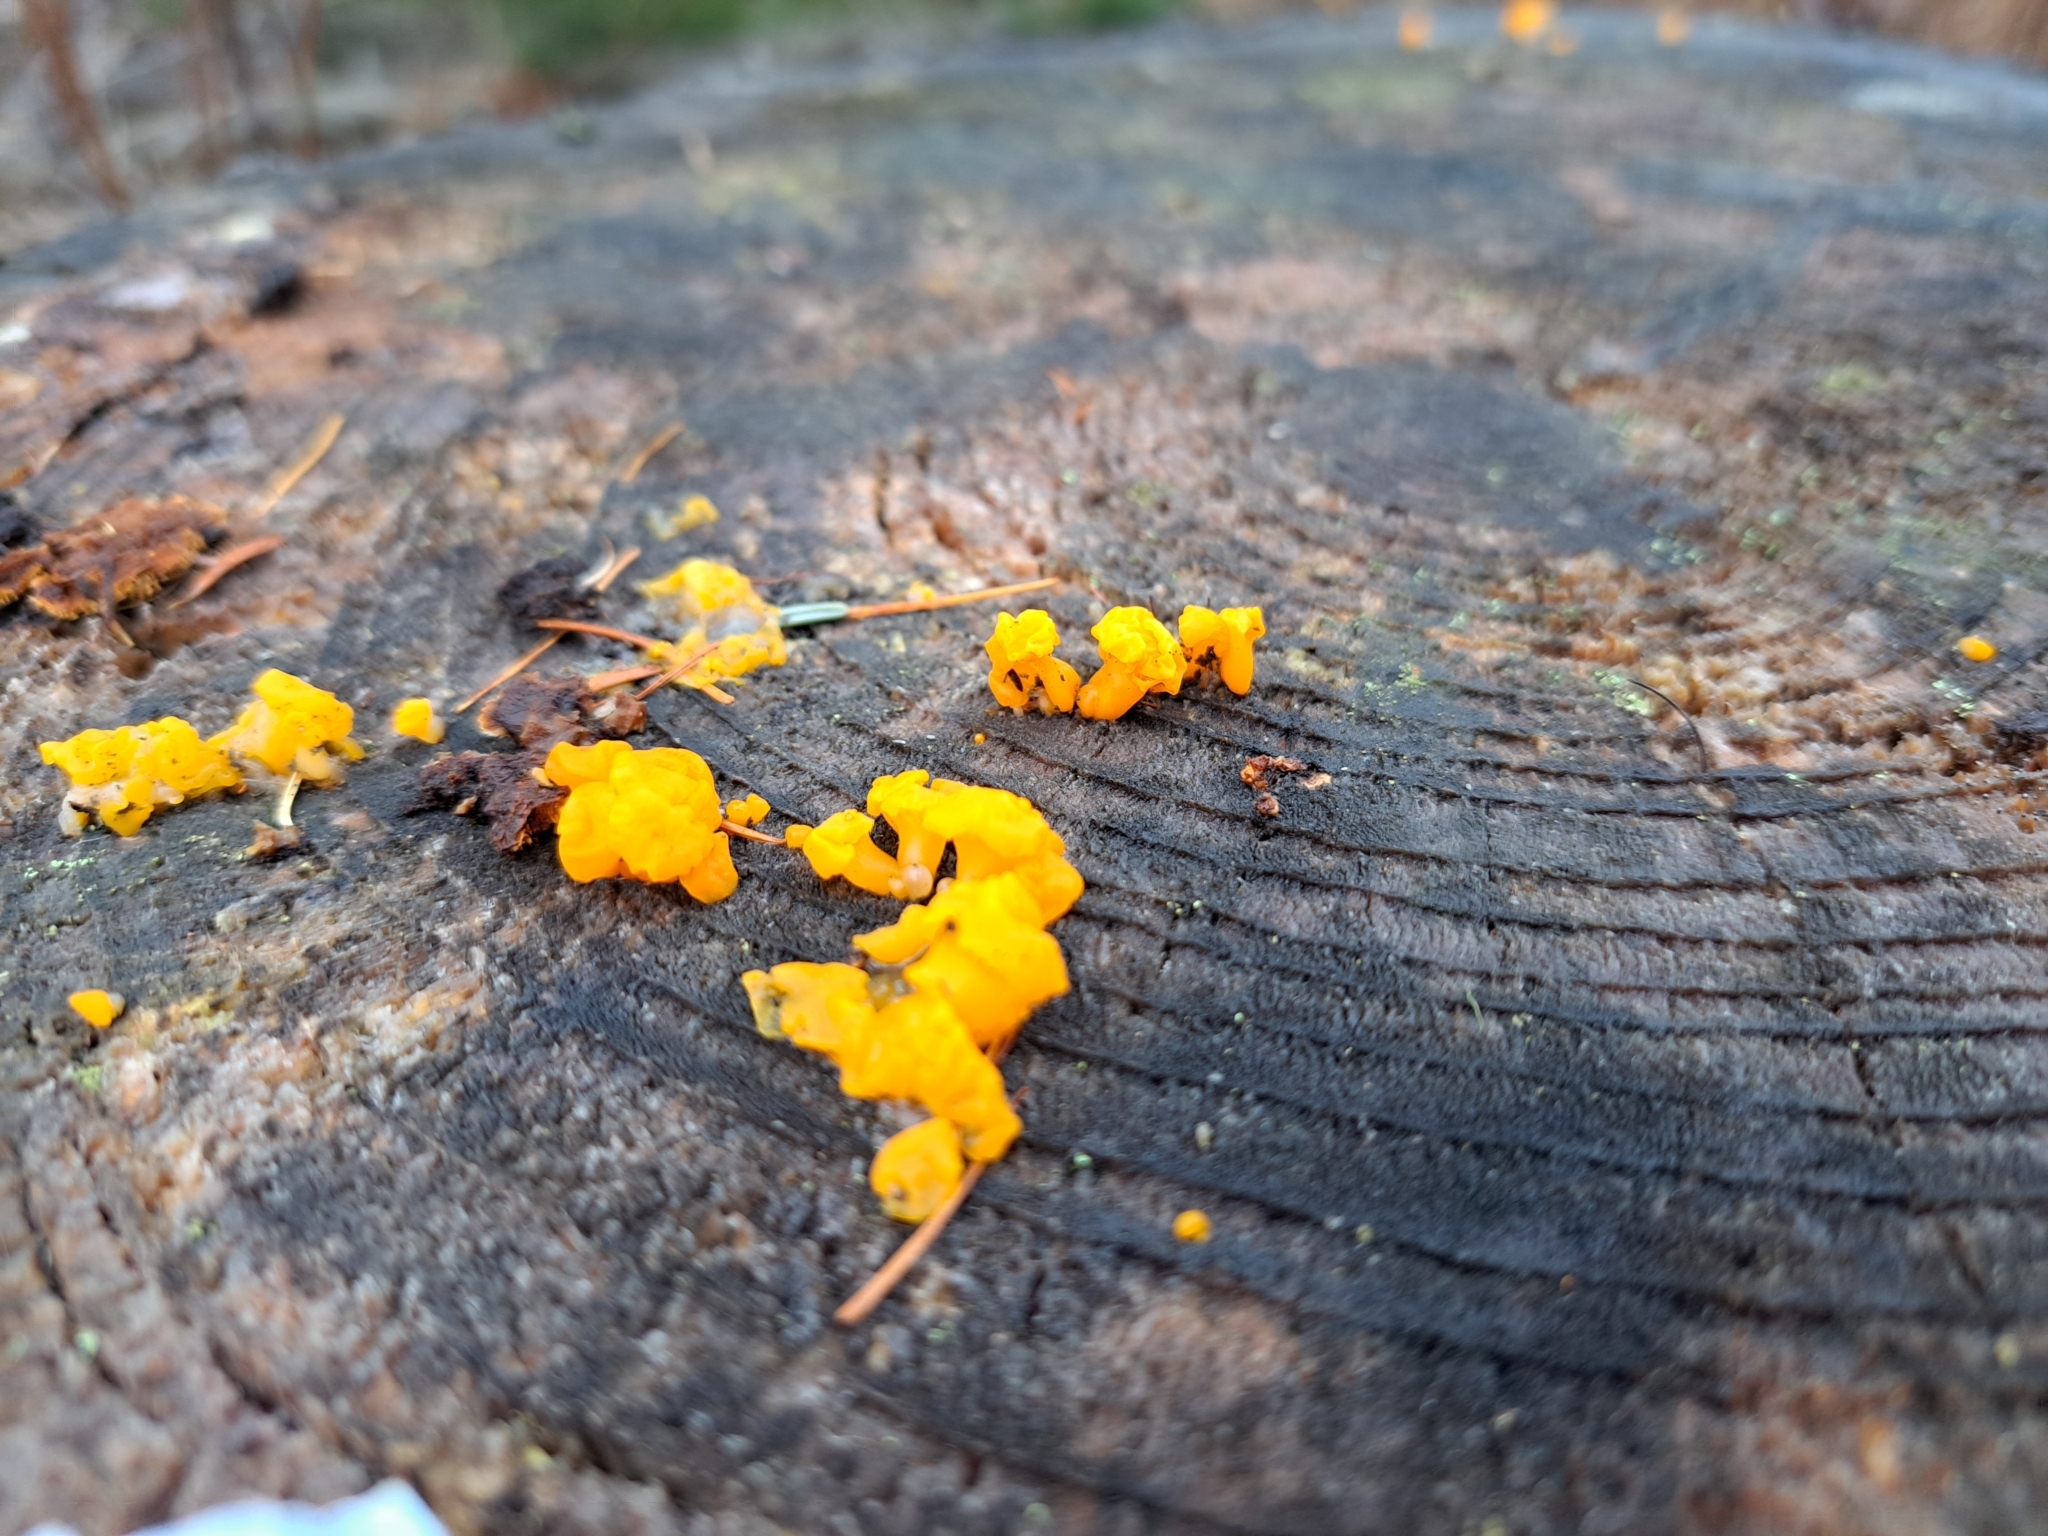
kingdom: Fungi
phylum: Basidiomycota
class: Dacrymycetes
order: Dacrymycetales
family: Dacrymycetaceae
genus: Dacrymyces
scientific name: Dacrymyces chrysospermus
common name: Orange jelly spot
